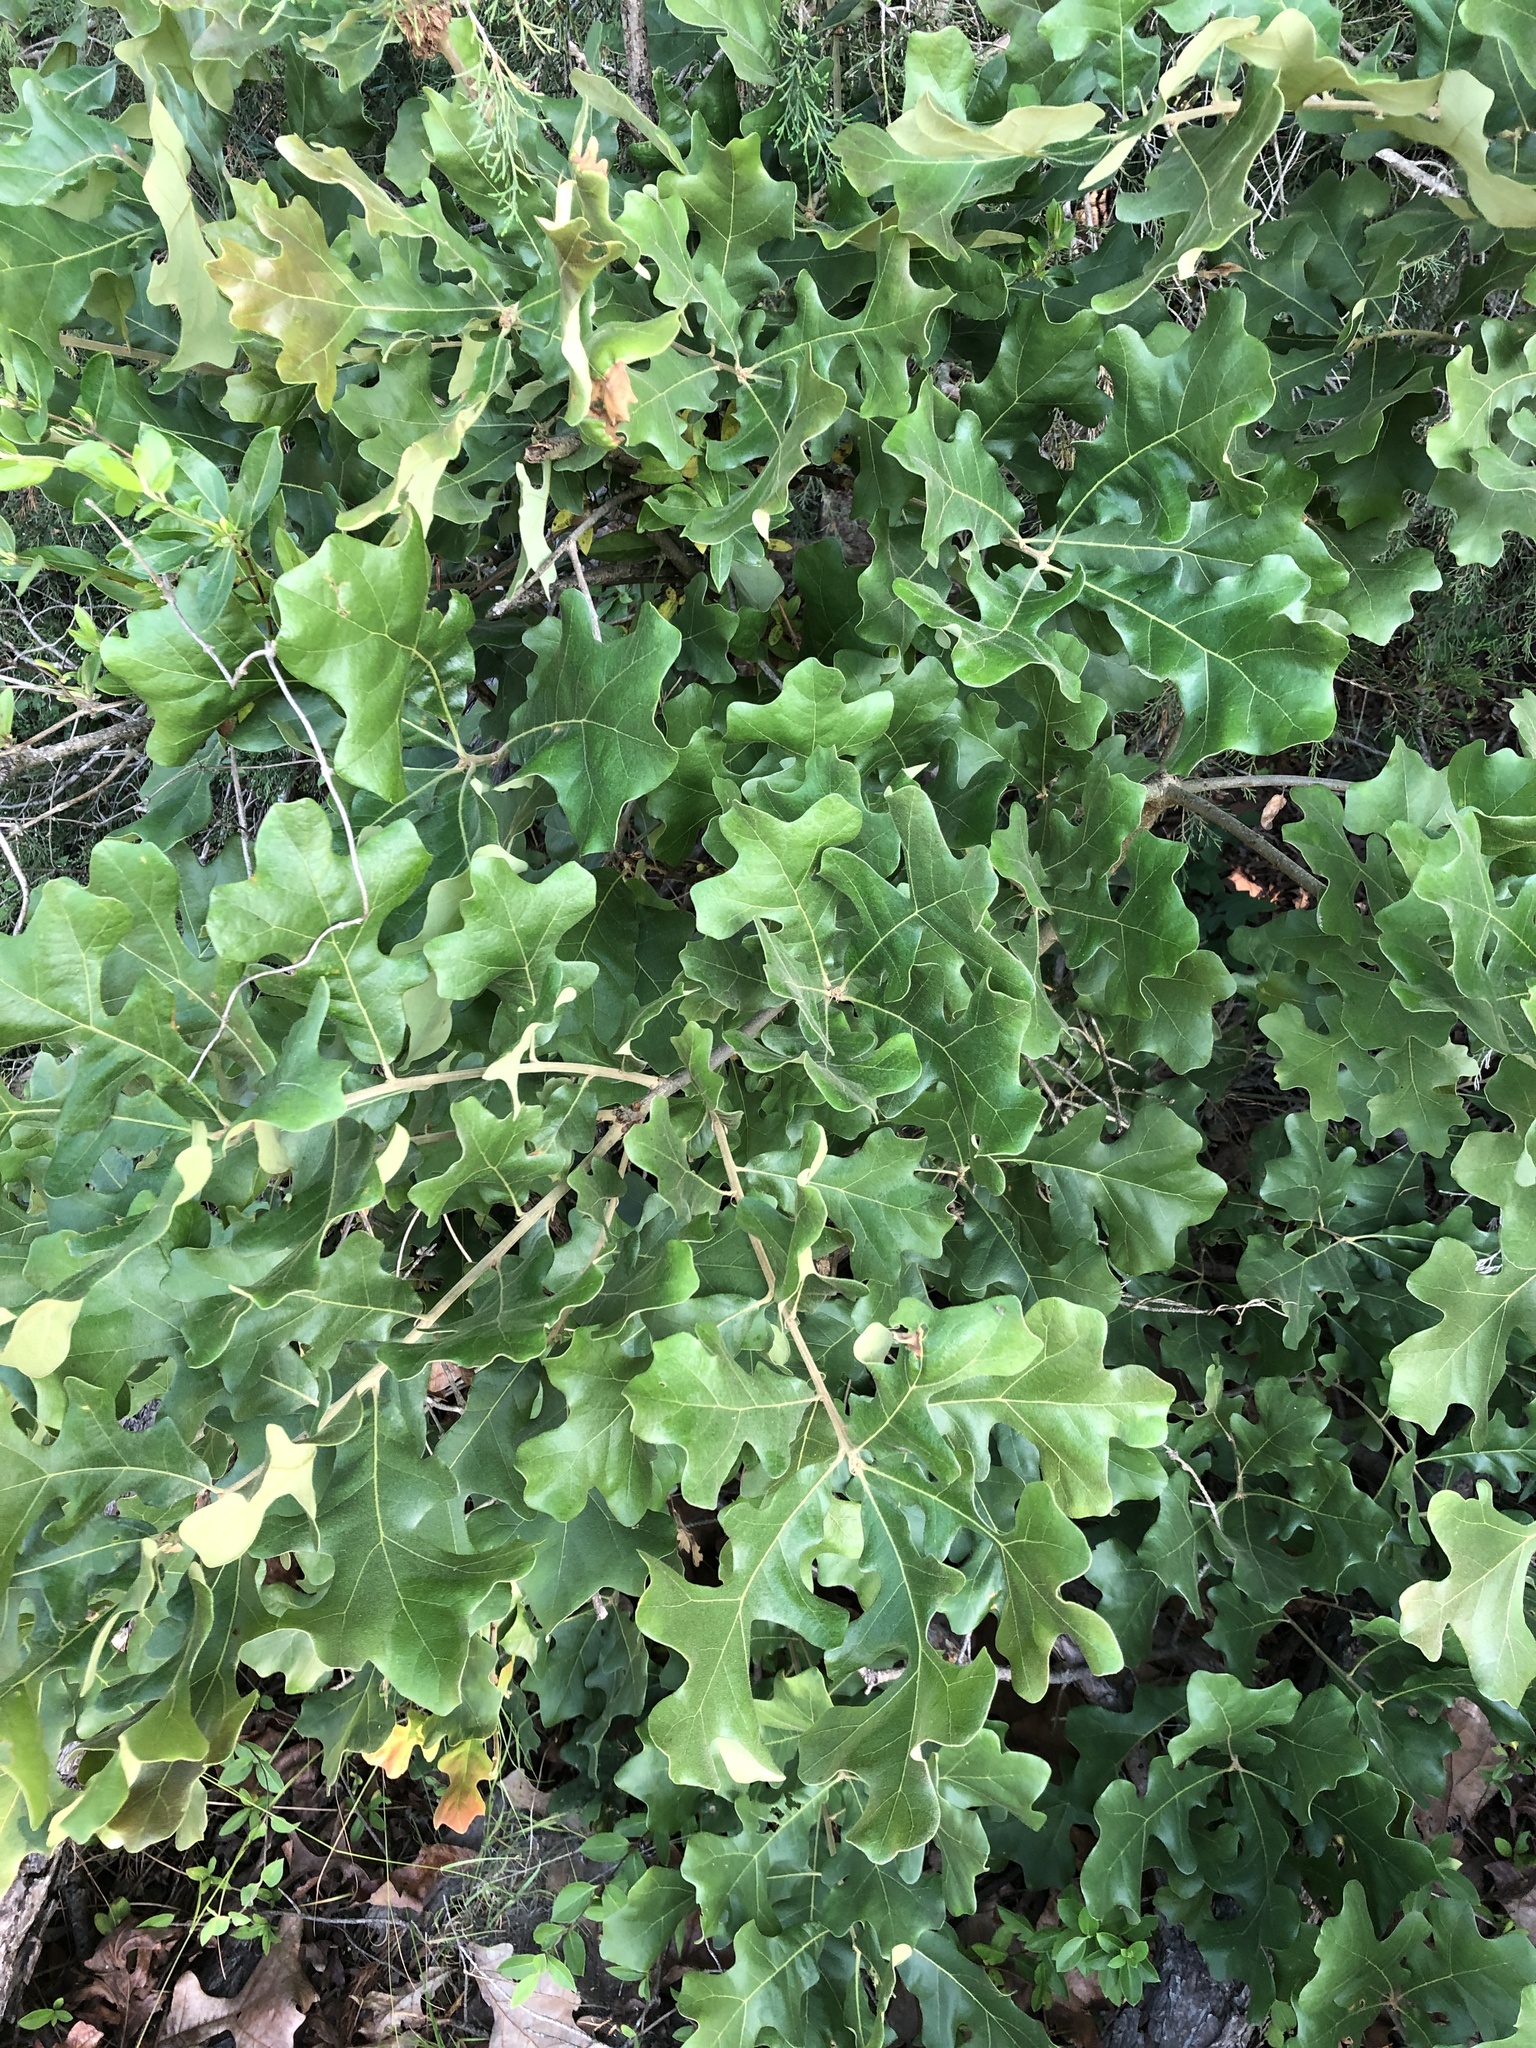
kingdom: Plantae
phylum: Tracheophyta
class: Magnoliopsida
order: Fagales
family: Fagaceae
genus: Quercus
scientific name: Quercus stellata
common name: Post oak
